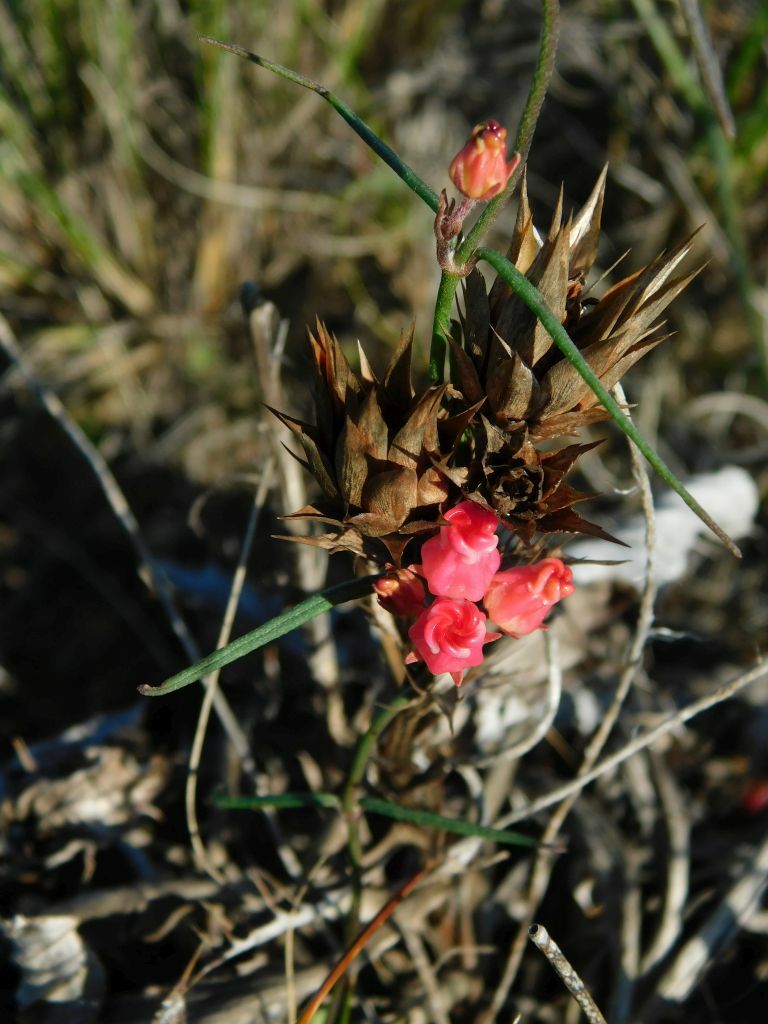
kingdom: Plantae
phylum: Tracheophyta
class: Magnoliopsida
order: Gentianales
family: Apocynaceae
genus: Microloma
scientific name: Microloma tenuifolium
